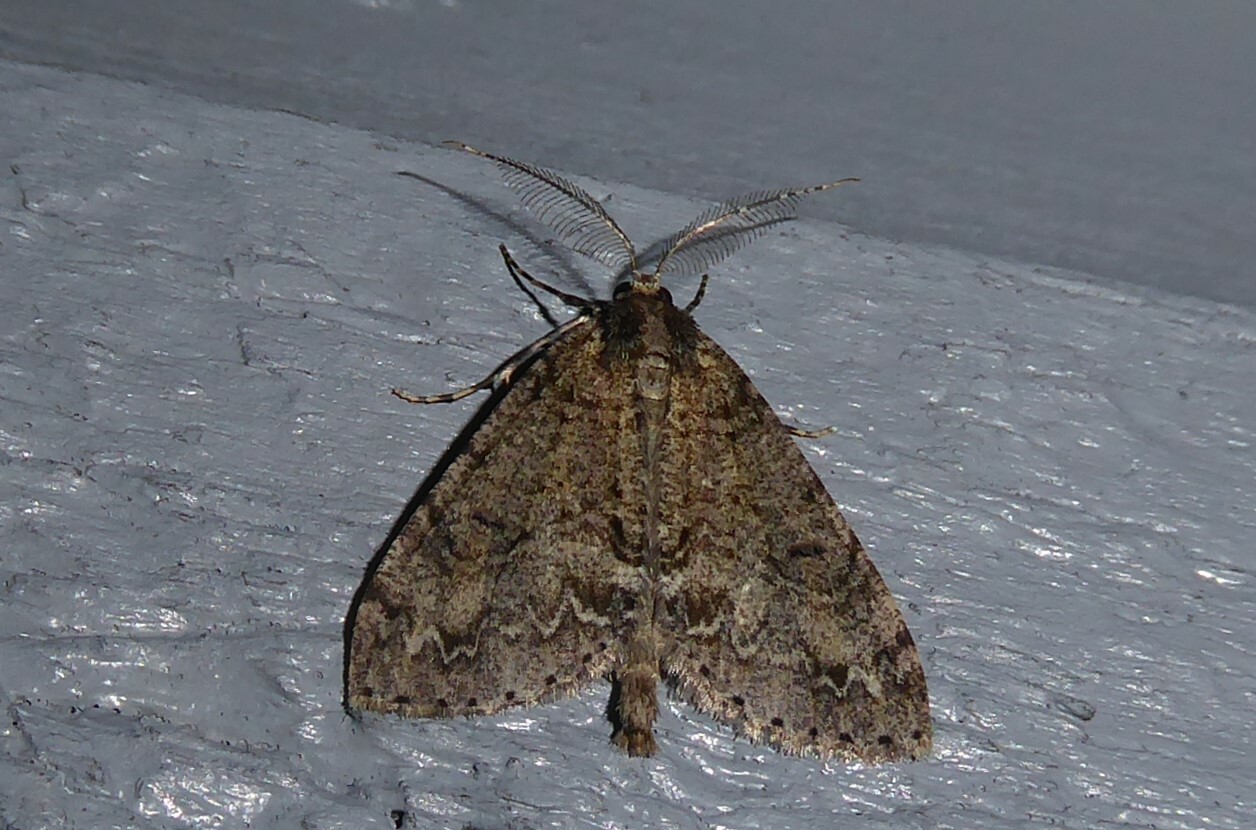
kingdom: Animalia
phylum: Arthropoda
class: Insecta
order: Lepidoptera
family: Geometridae
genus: Pseudocoremia
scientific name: Pseudocoremia suavis
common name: Common forest looper
